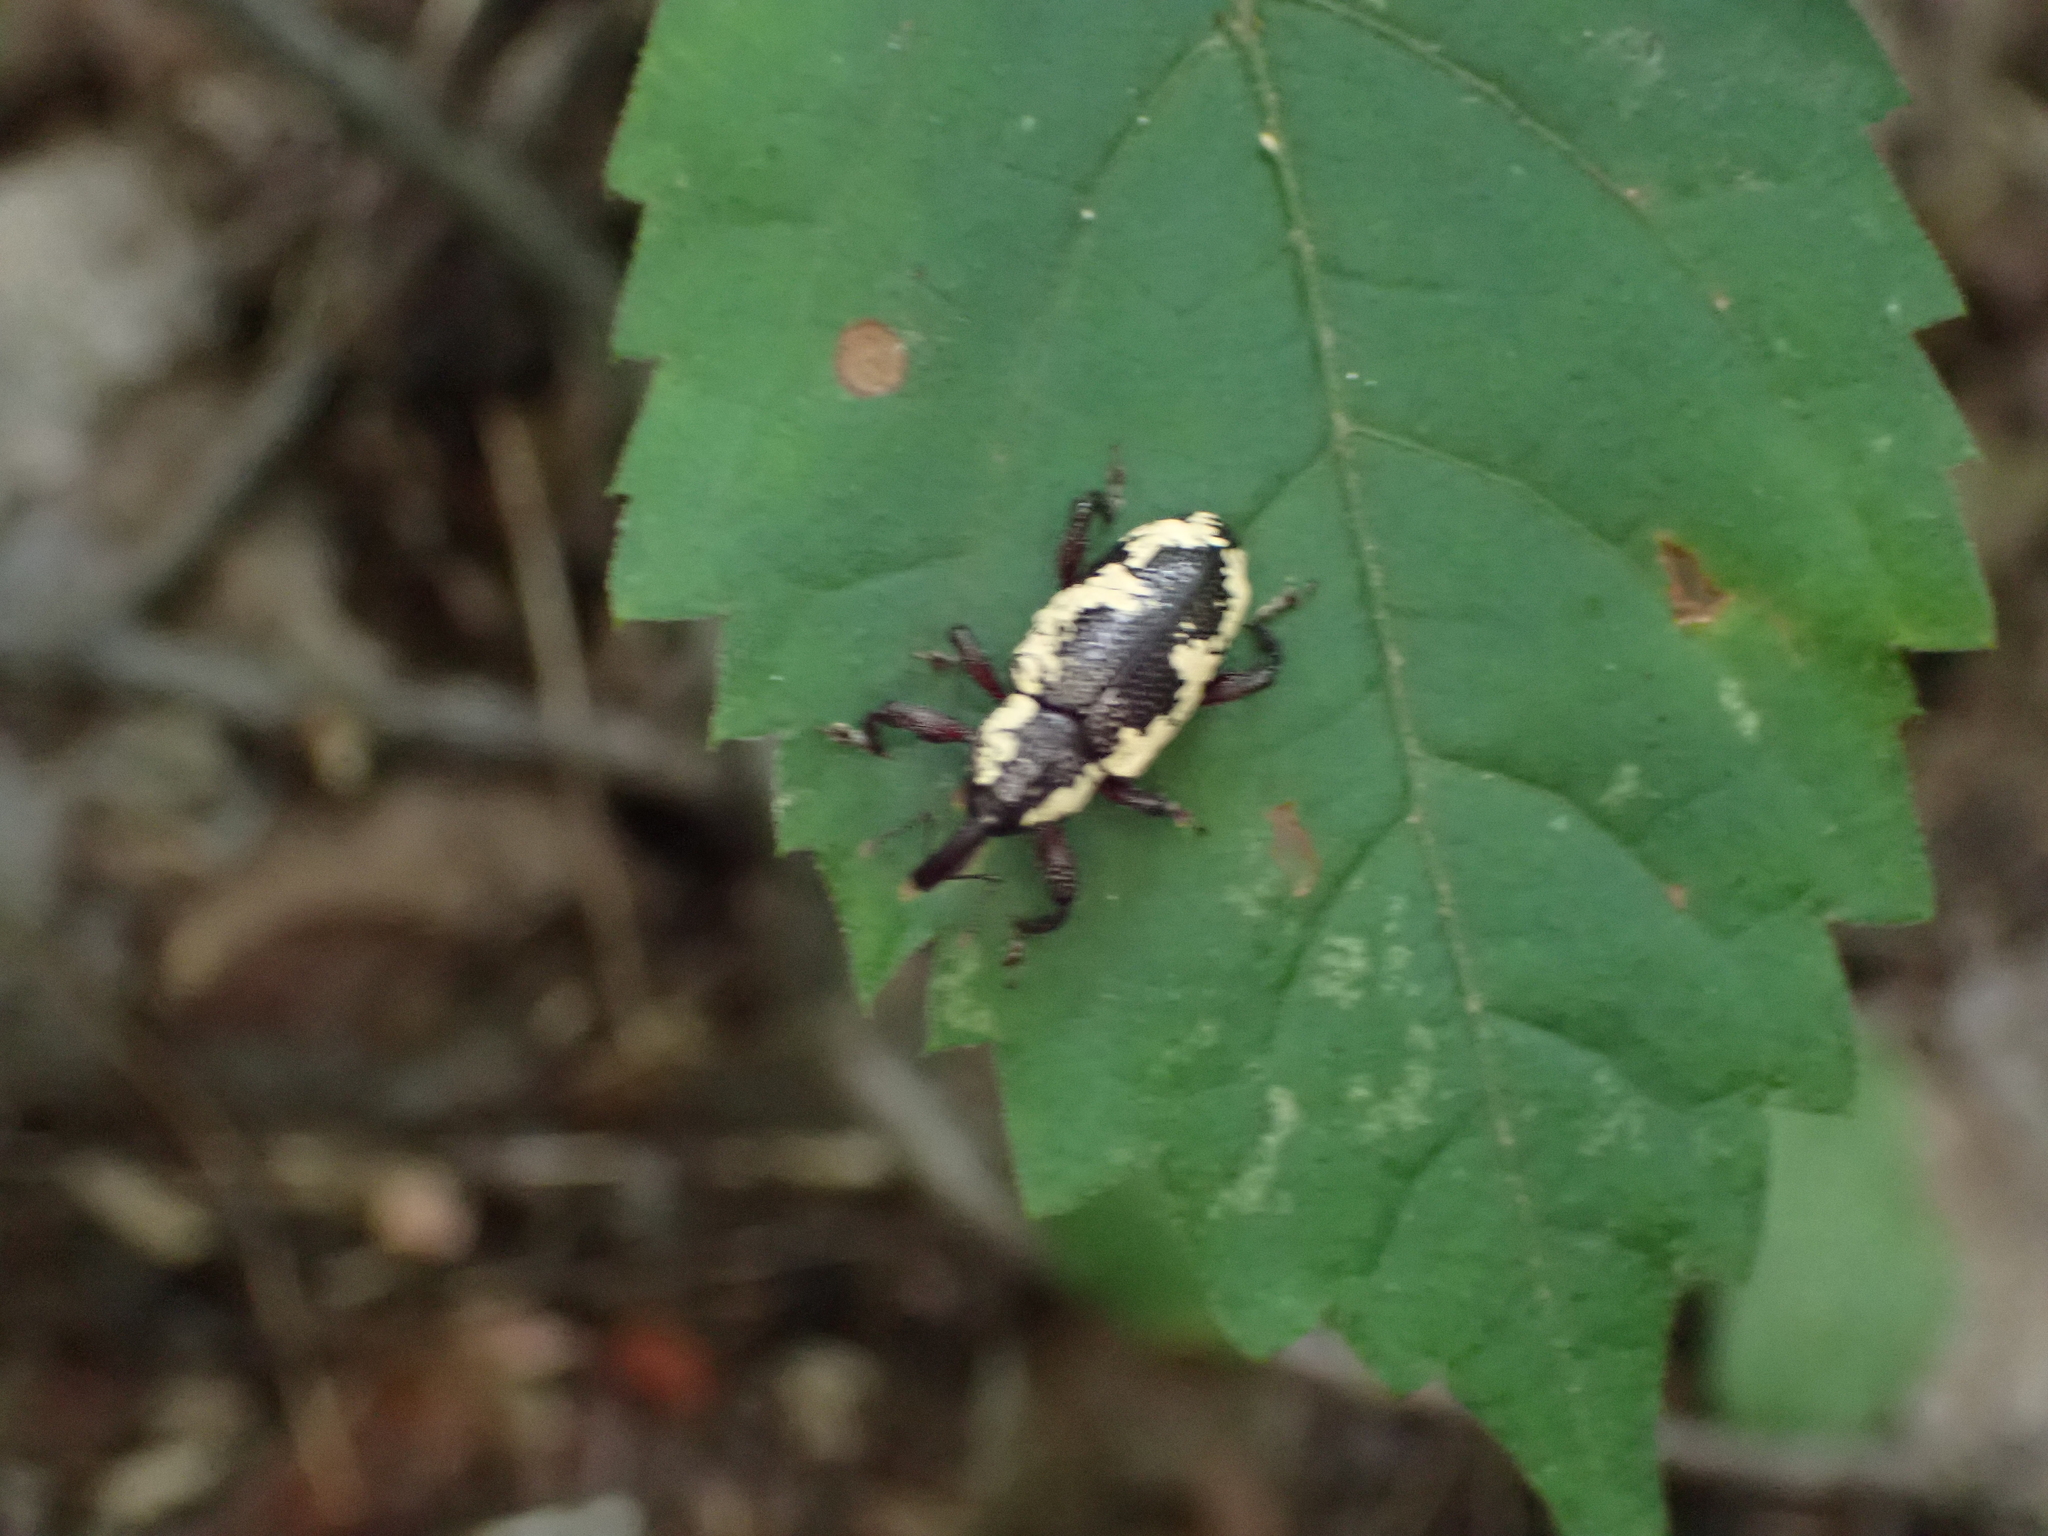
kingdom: Animalia
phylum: Arthropoda
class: Insecta
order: Coleoptera
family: Curculionidae
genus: Heilipus
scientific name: Heilipus squamosus
